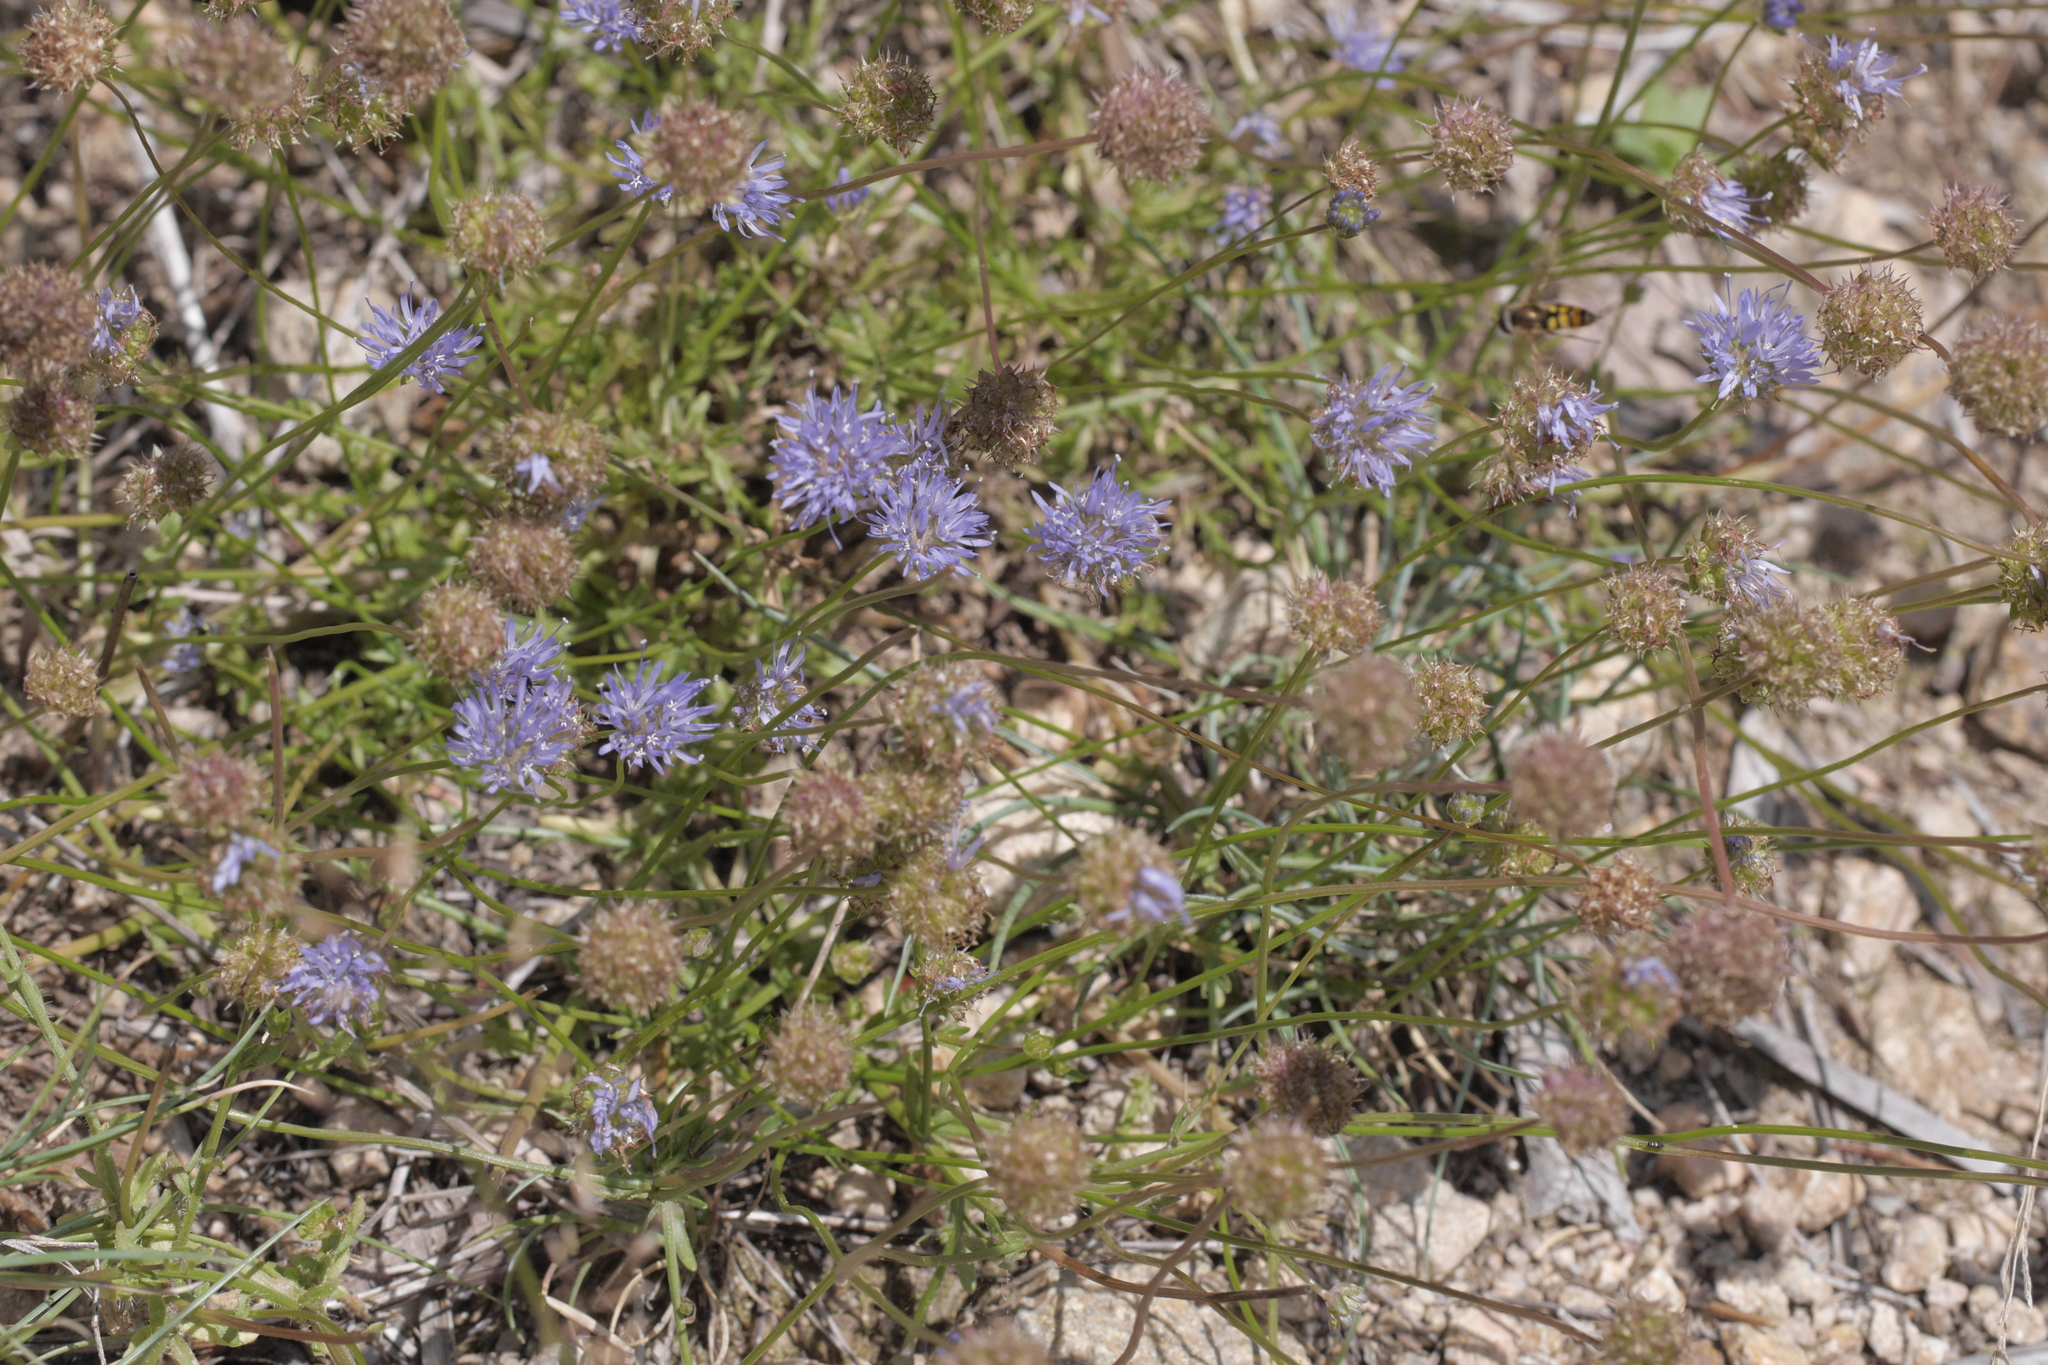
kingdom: Plantae
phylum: Tracheophyta
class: Magnoliopsida
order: Asterales
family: Campanulaceae
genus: Jasione
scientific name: Jasione montana
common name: Sheep's-bit
